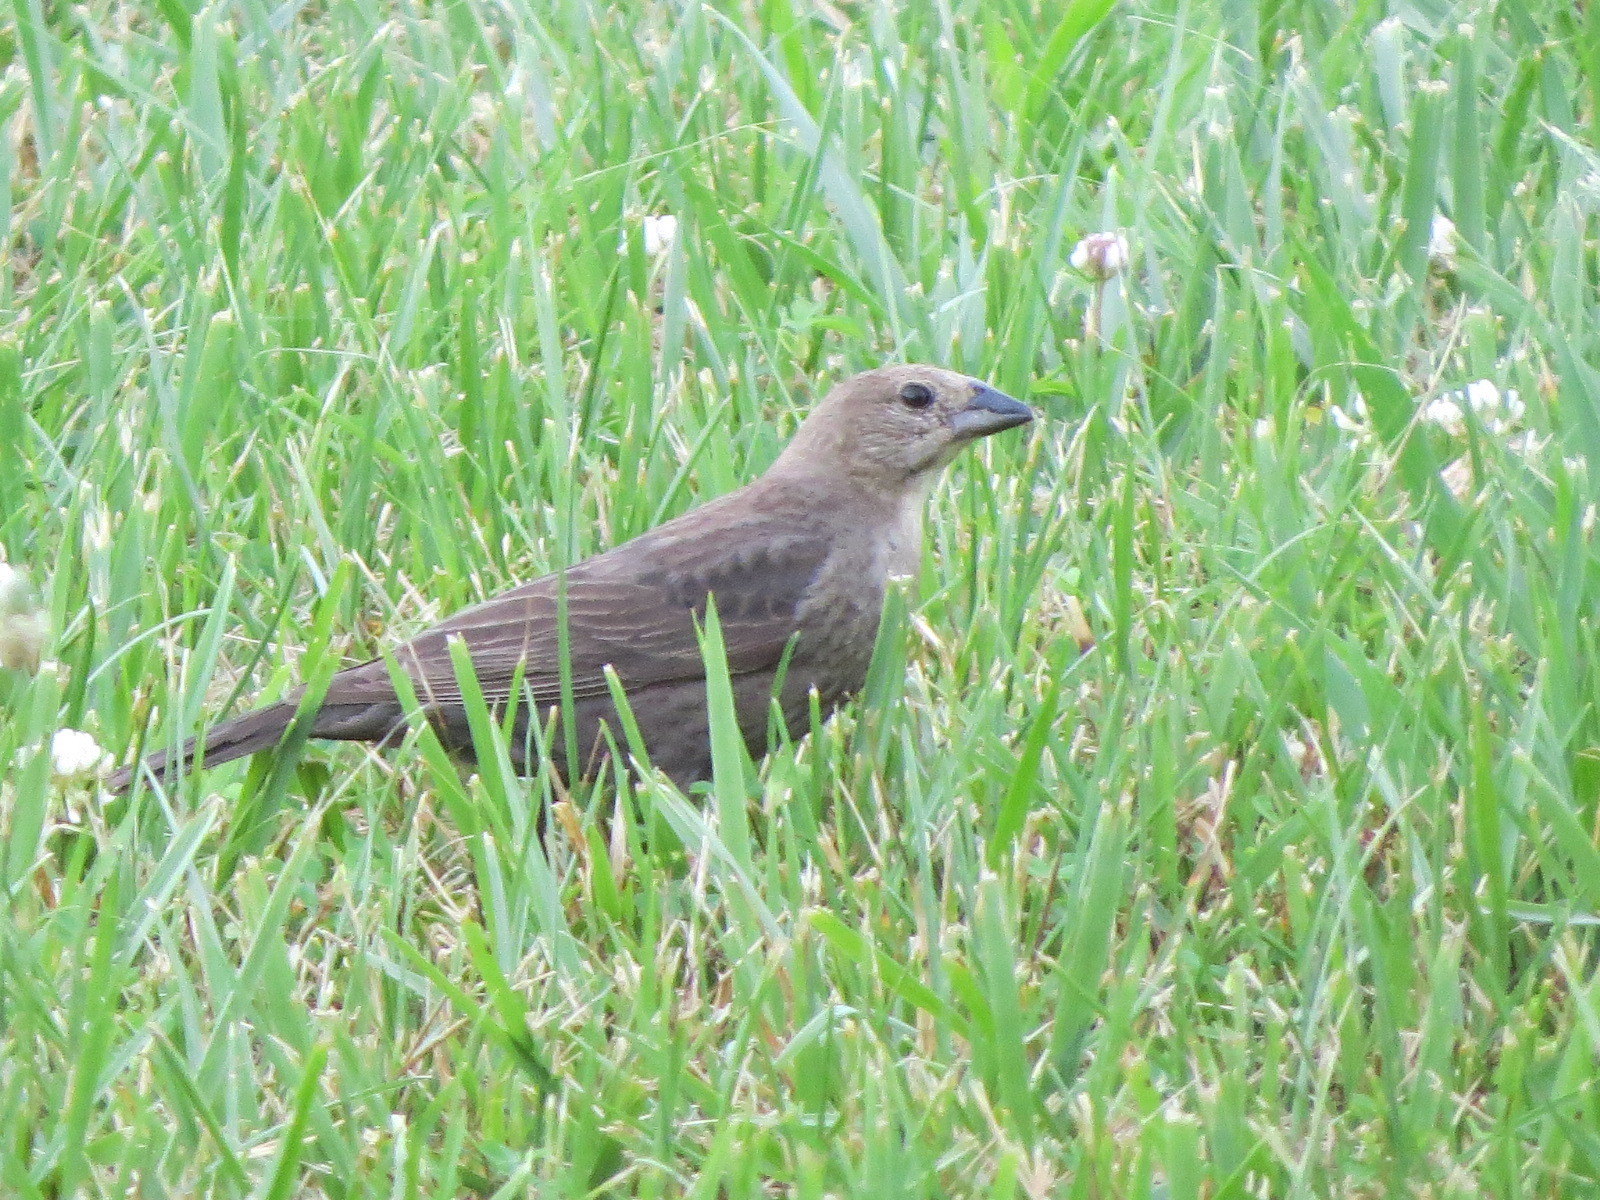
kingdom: Animalia
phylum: Chordata
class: Aves
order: Passeriformes
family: Icteridae
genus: Molothrus
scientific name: Molothrus ater
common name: Brown-headed cowbird
